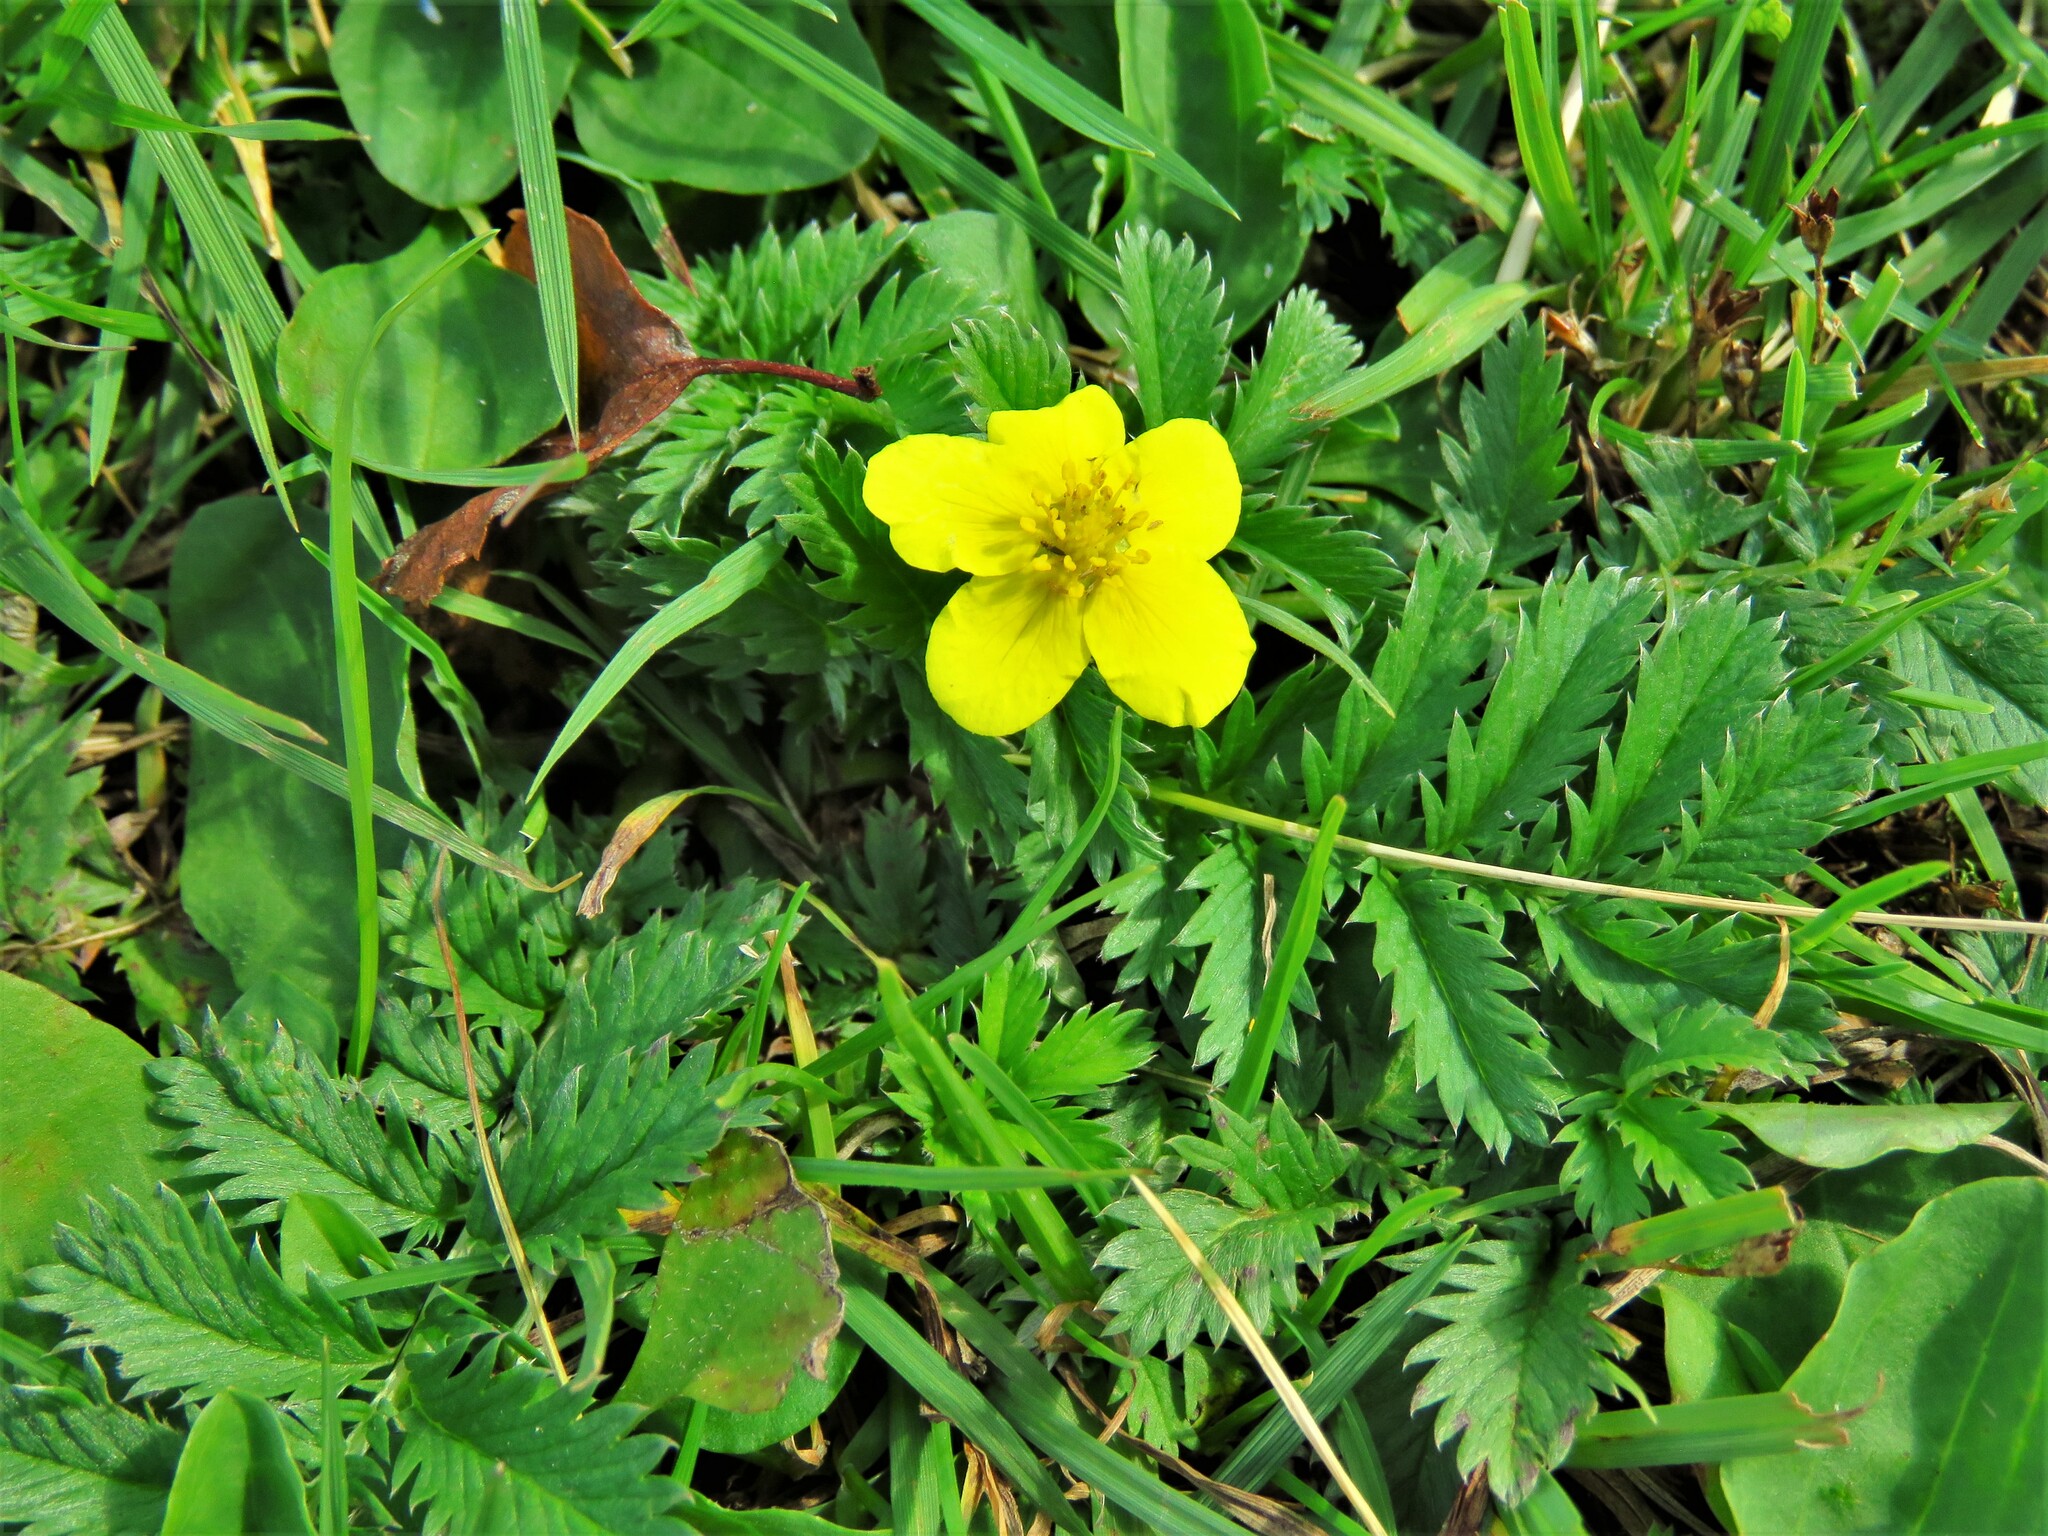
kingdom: Plantae
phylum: Tracheophyta
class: Magnoliopsida
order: Rosales
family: Rosaceae
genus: Argentina
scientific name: Argentina anserina
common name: Common silverweed
